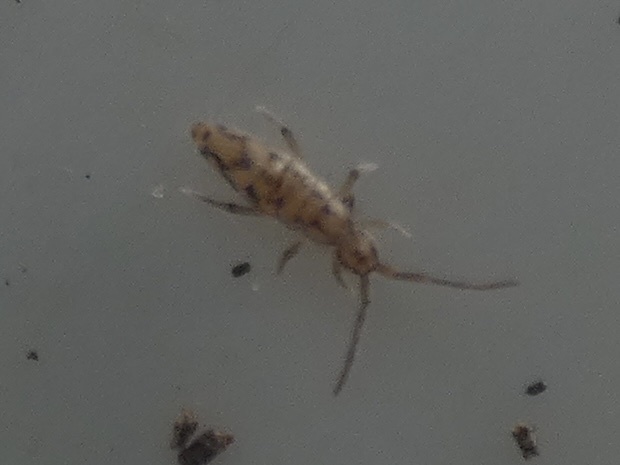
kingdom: Animalia
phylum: Arthropoda
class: Collembola
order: Entomobryomorpha
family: Entomobryidae
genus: Entomobrya
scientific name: Entomobrya intermedia
